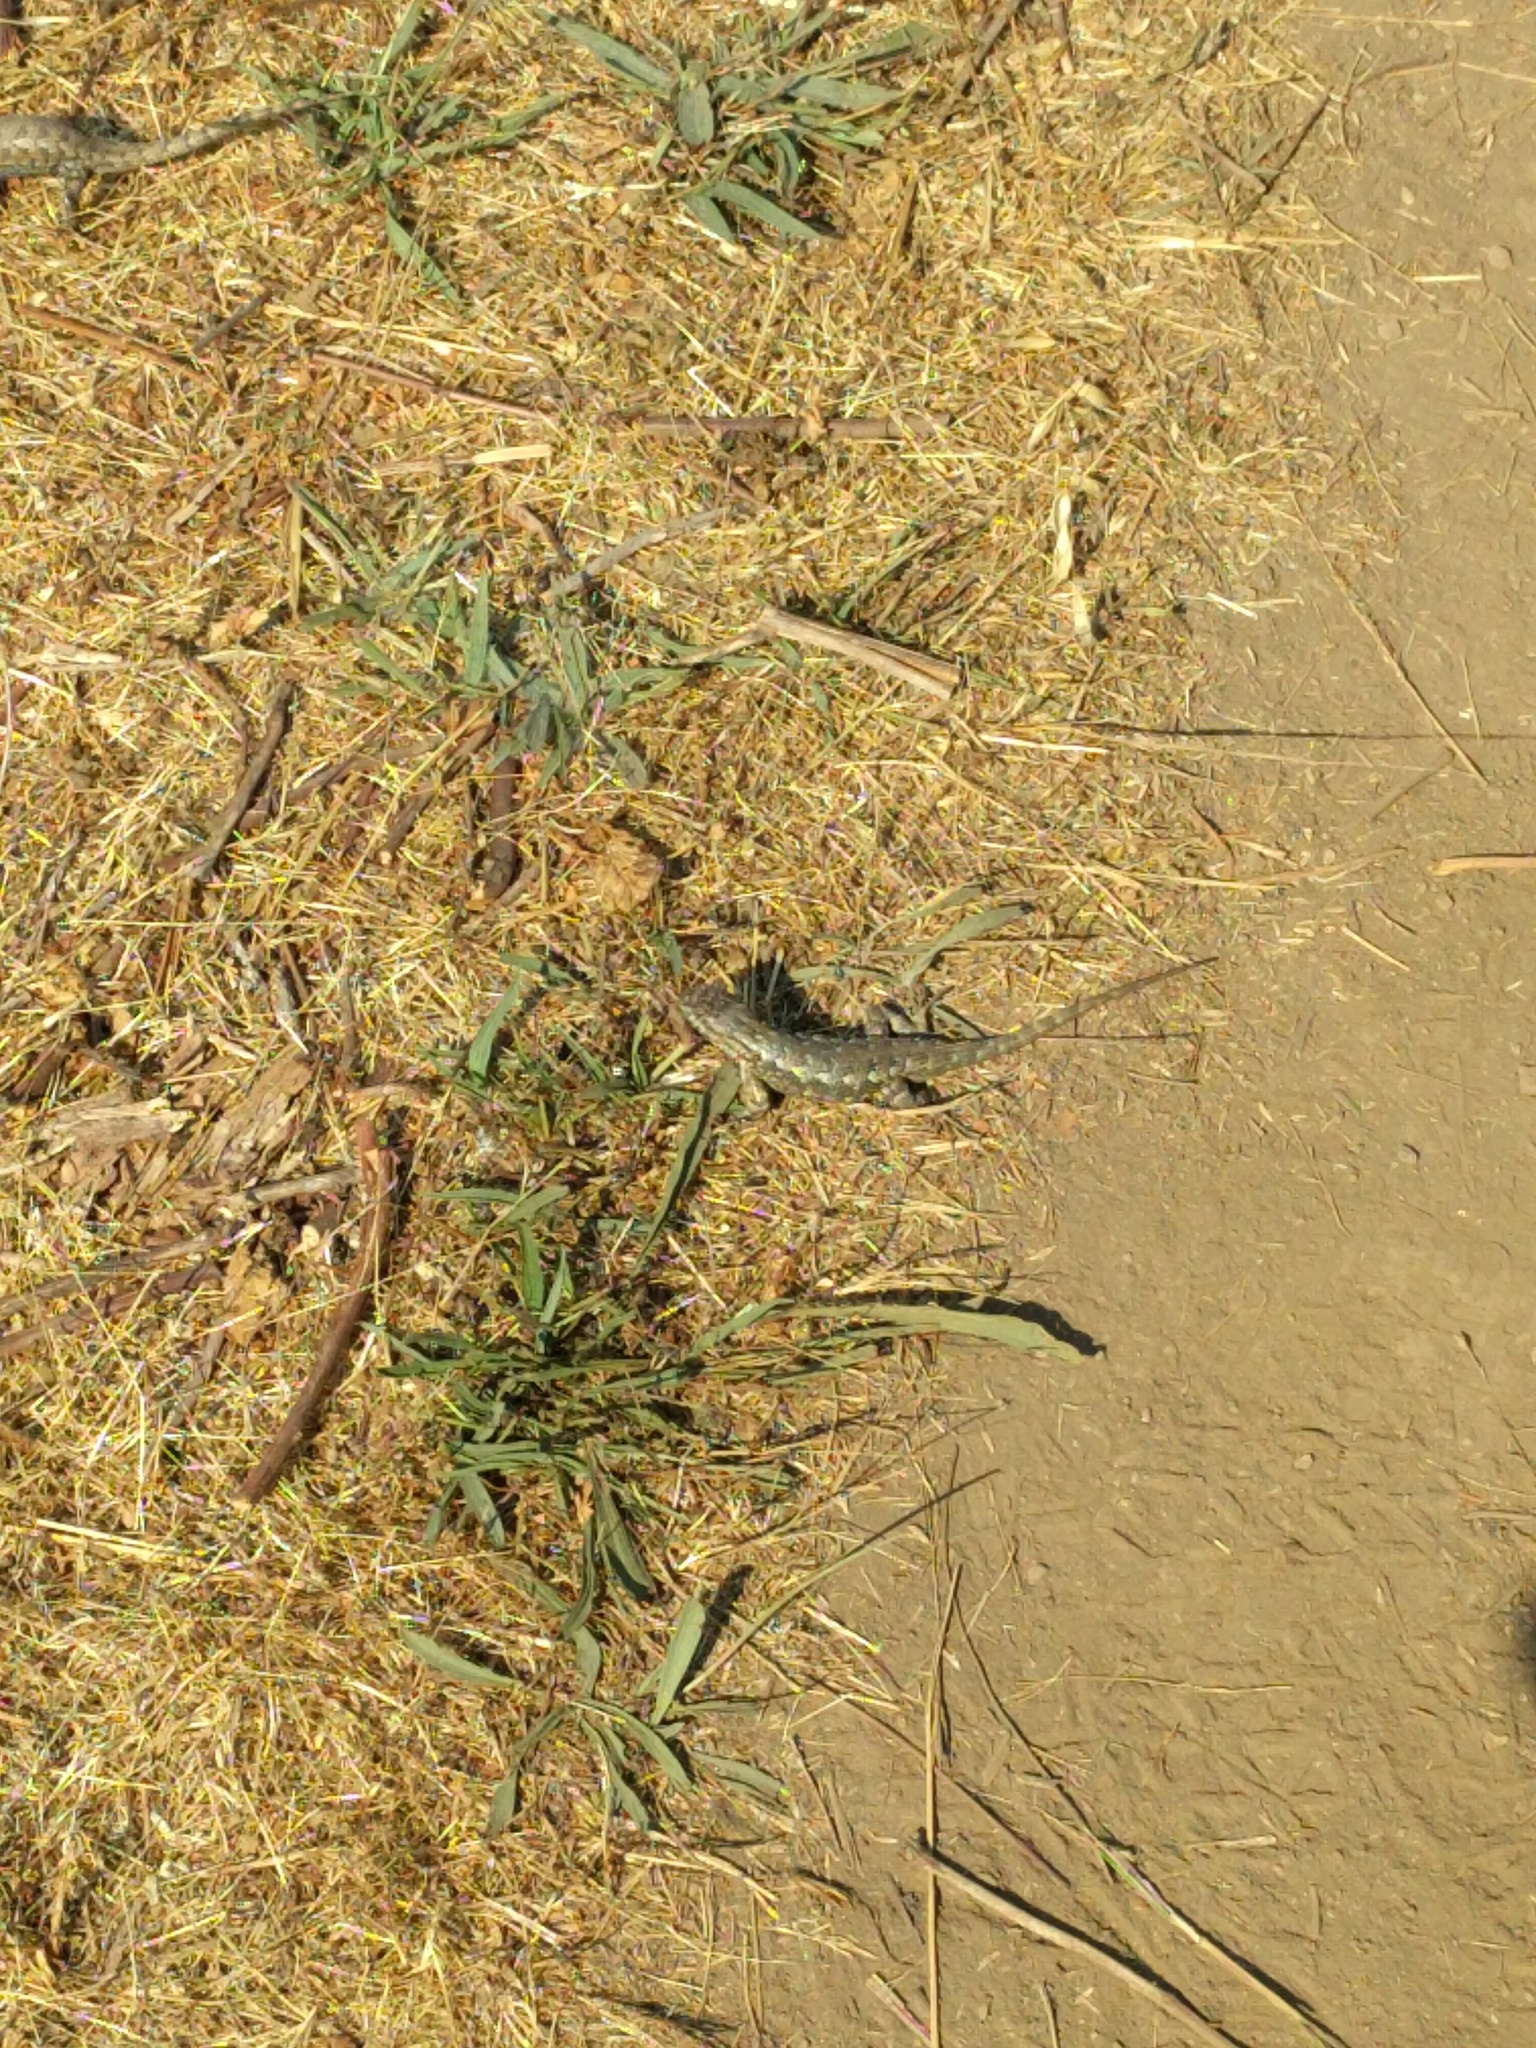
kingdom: Animalia
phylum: Chordata
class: Squamata
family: Phrynosomatidae
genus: Sceloporus
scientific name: Sceloporus occidentalis
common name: Western fence lizard
